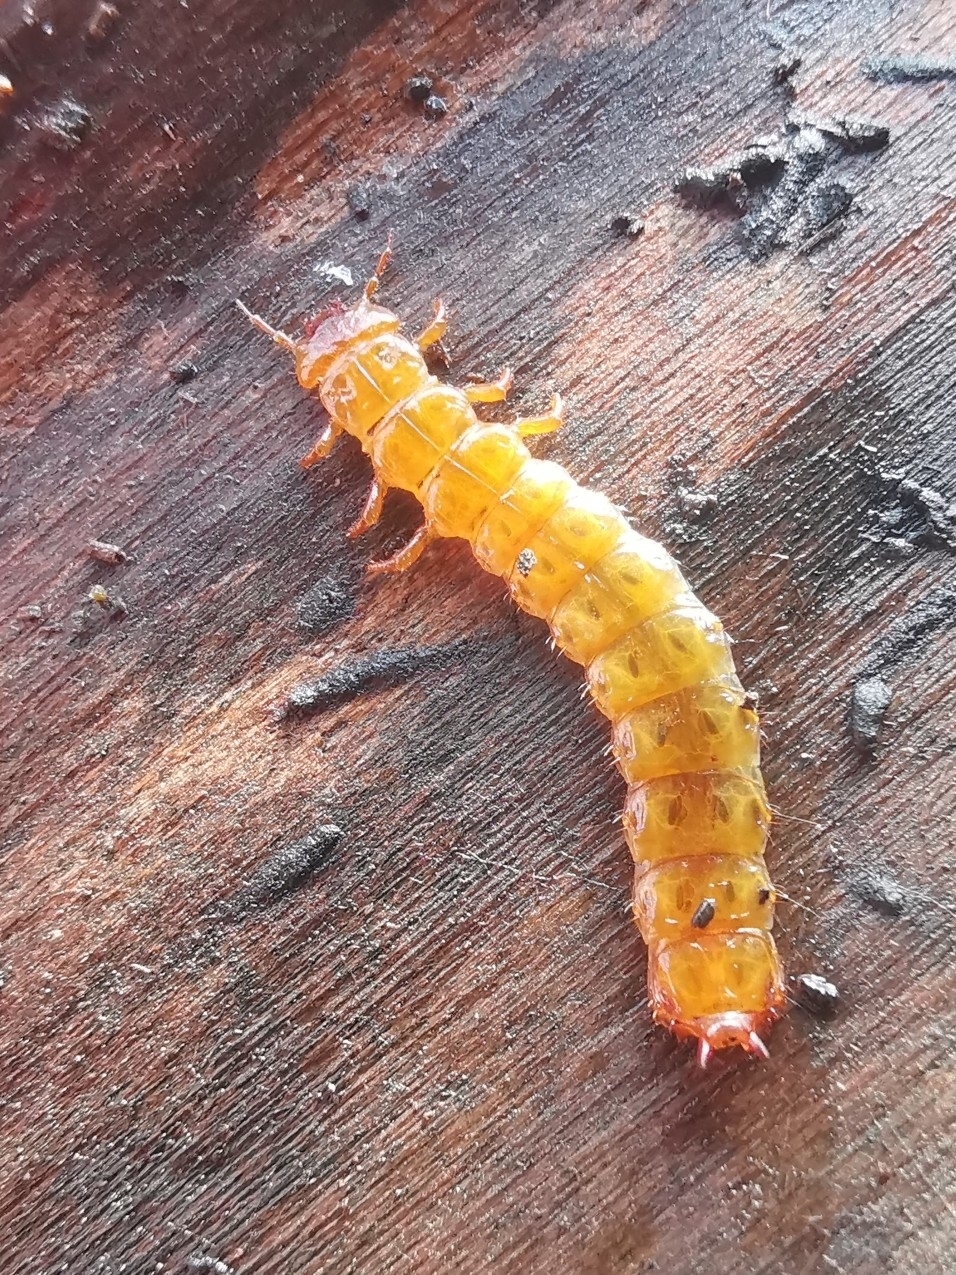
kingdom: Animalia
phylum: Arthropoda
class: Insecta
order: Coleoptera
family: Cucujidae
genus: Cucujus
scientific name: Cucujus cinnaberinus
